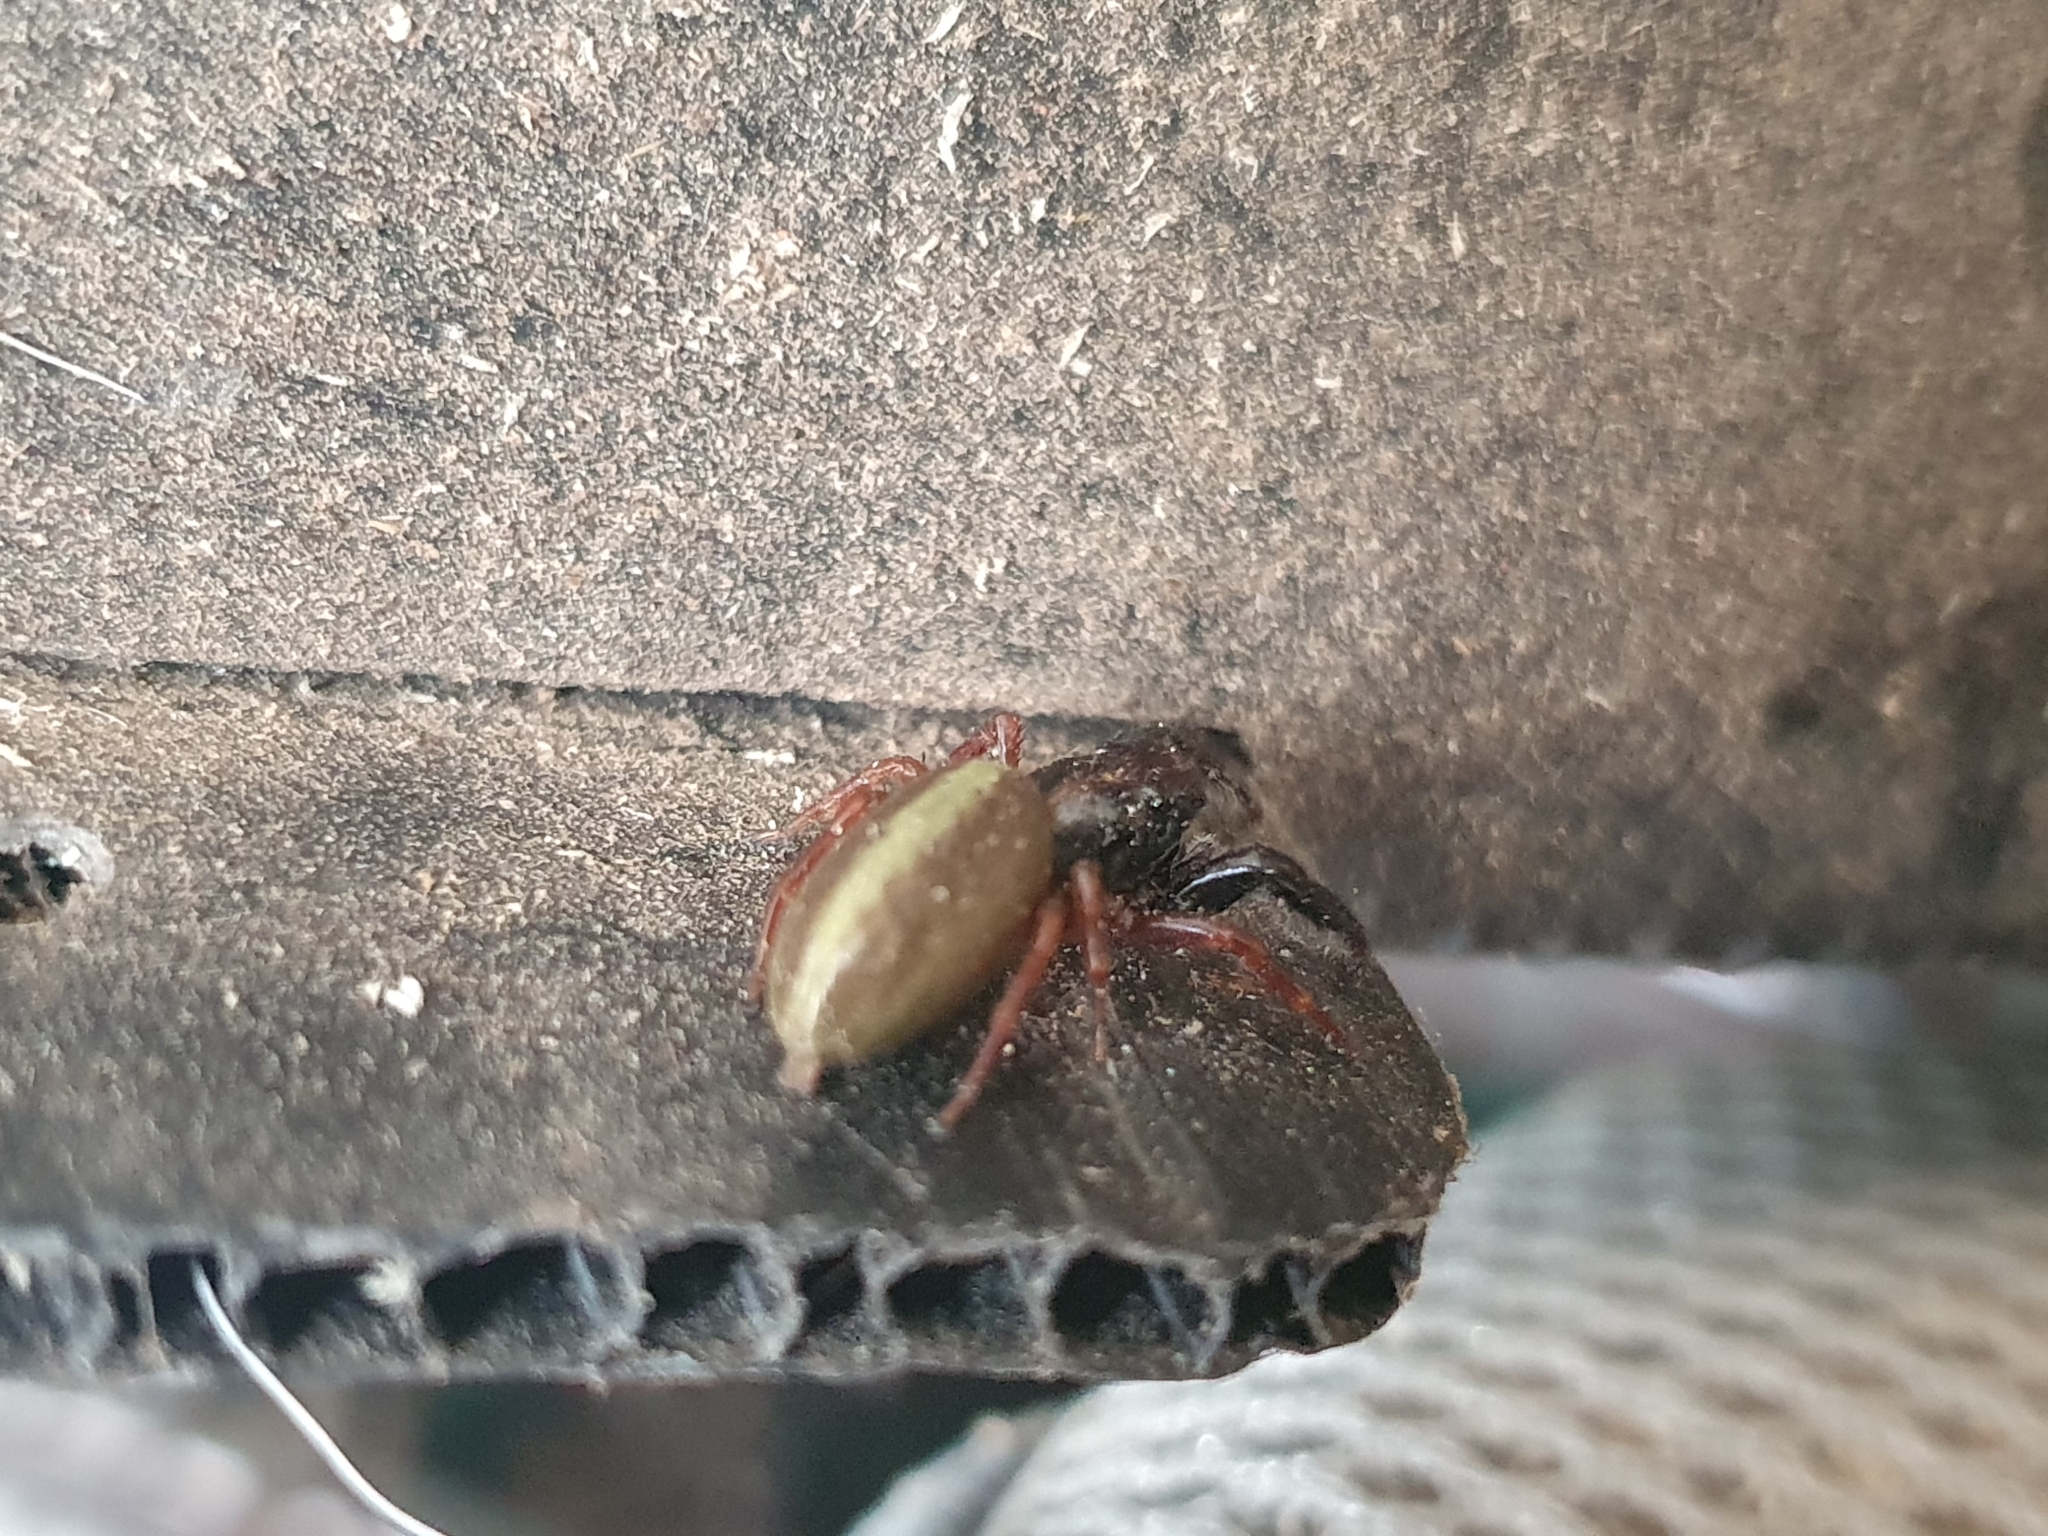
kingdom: Animalia
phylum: Arthropoda
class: Arachnida
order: Araneae
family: Salticidae
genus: Trite
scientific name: Trite planiceps
